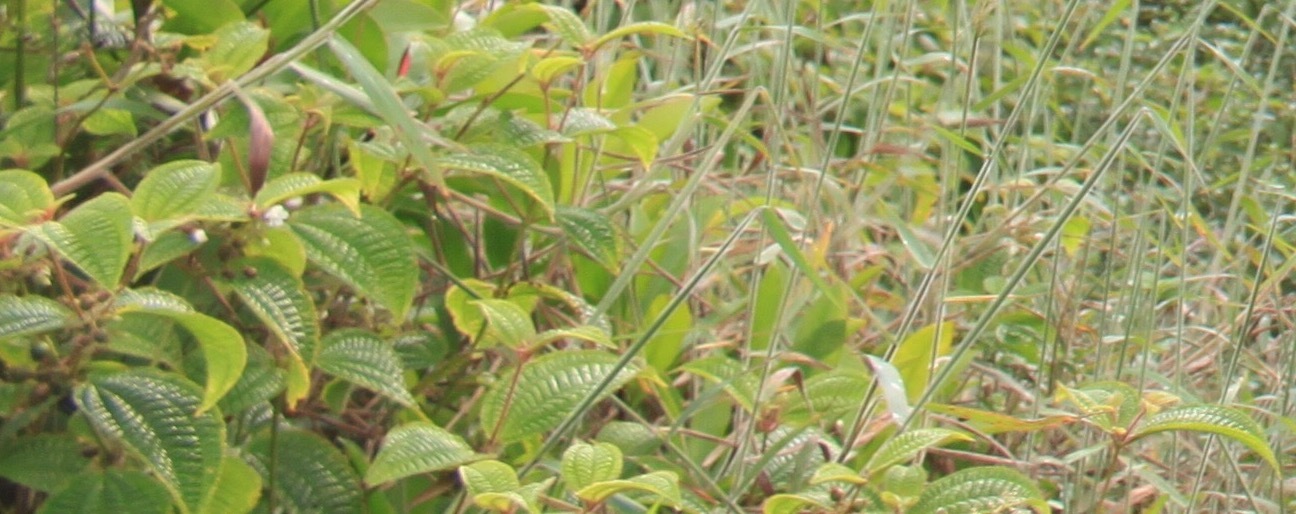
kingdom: Plantae
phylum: Tracheophyta
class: Magnoliopsida
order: Myrtales
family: Melastomataceae
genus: Miconia
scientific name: Miconia crenata
